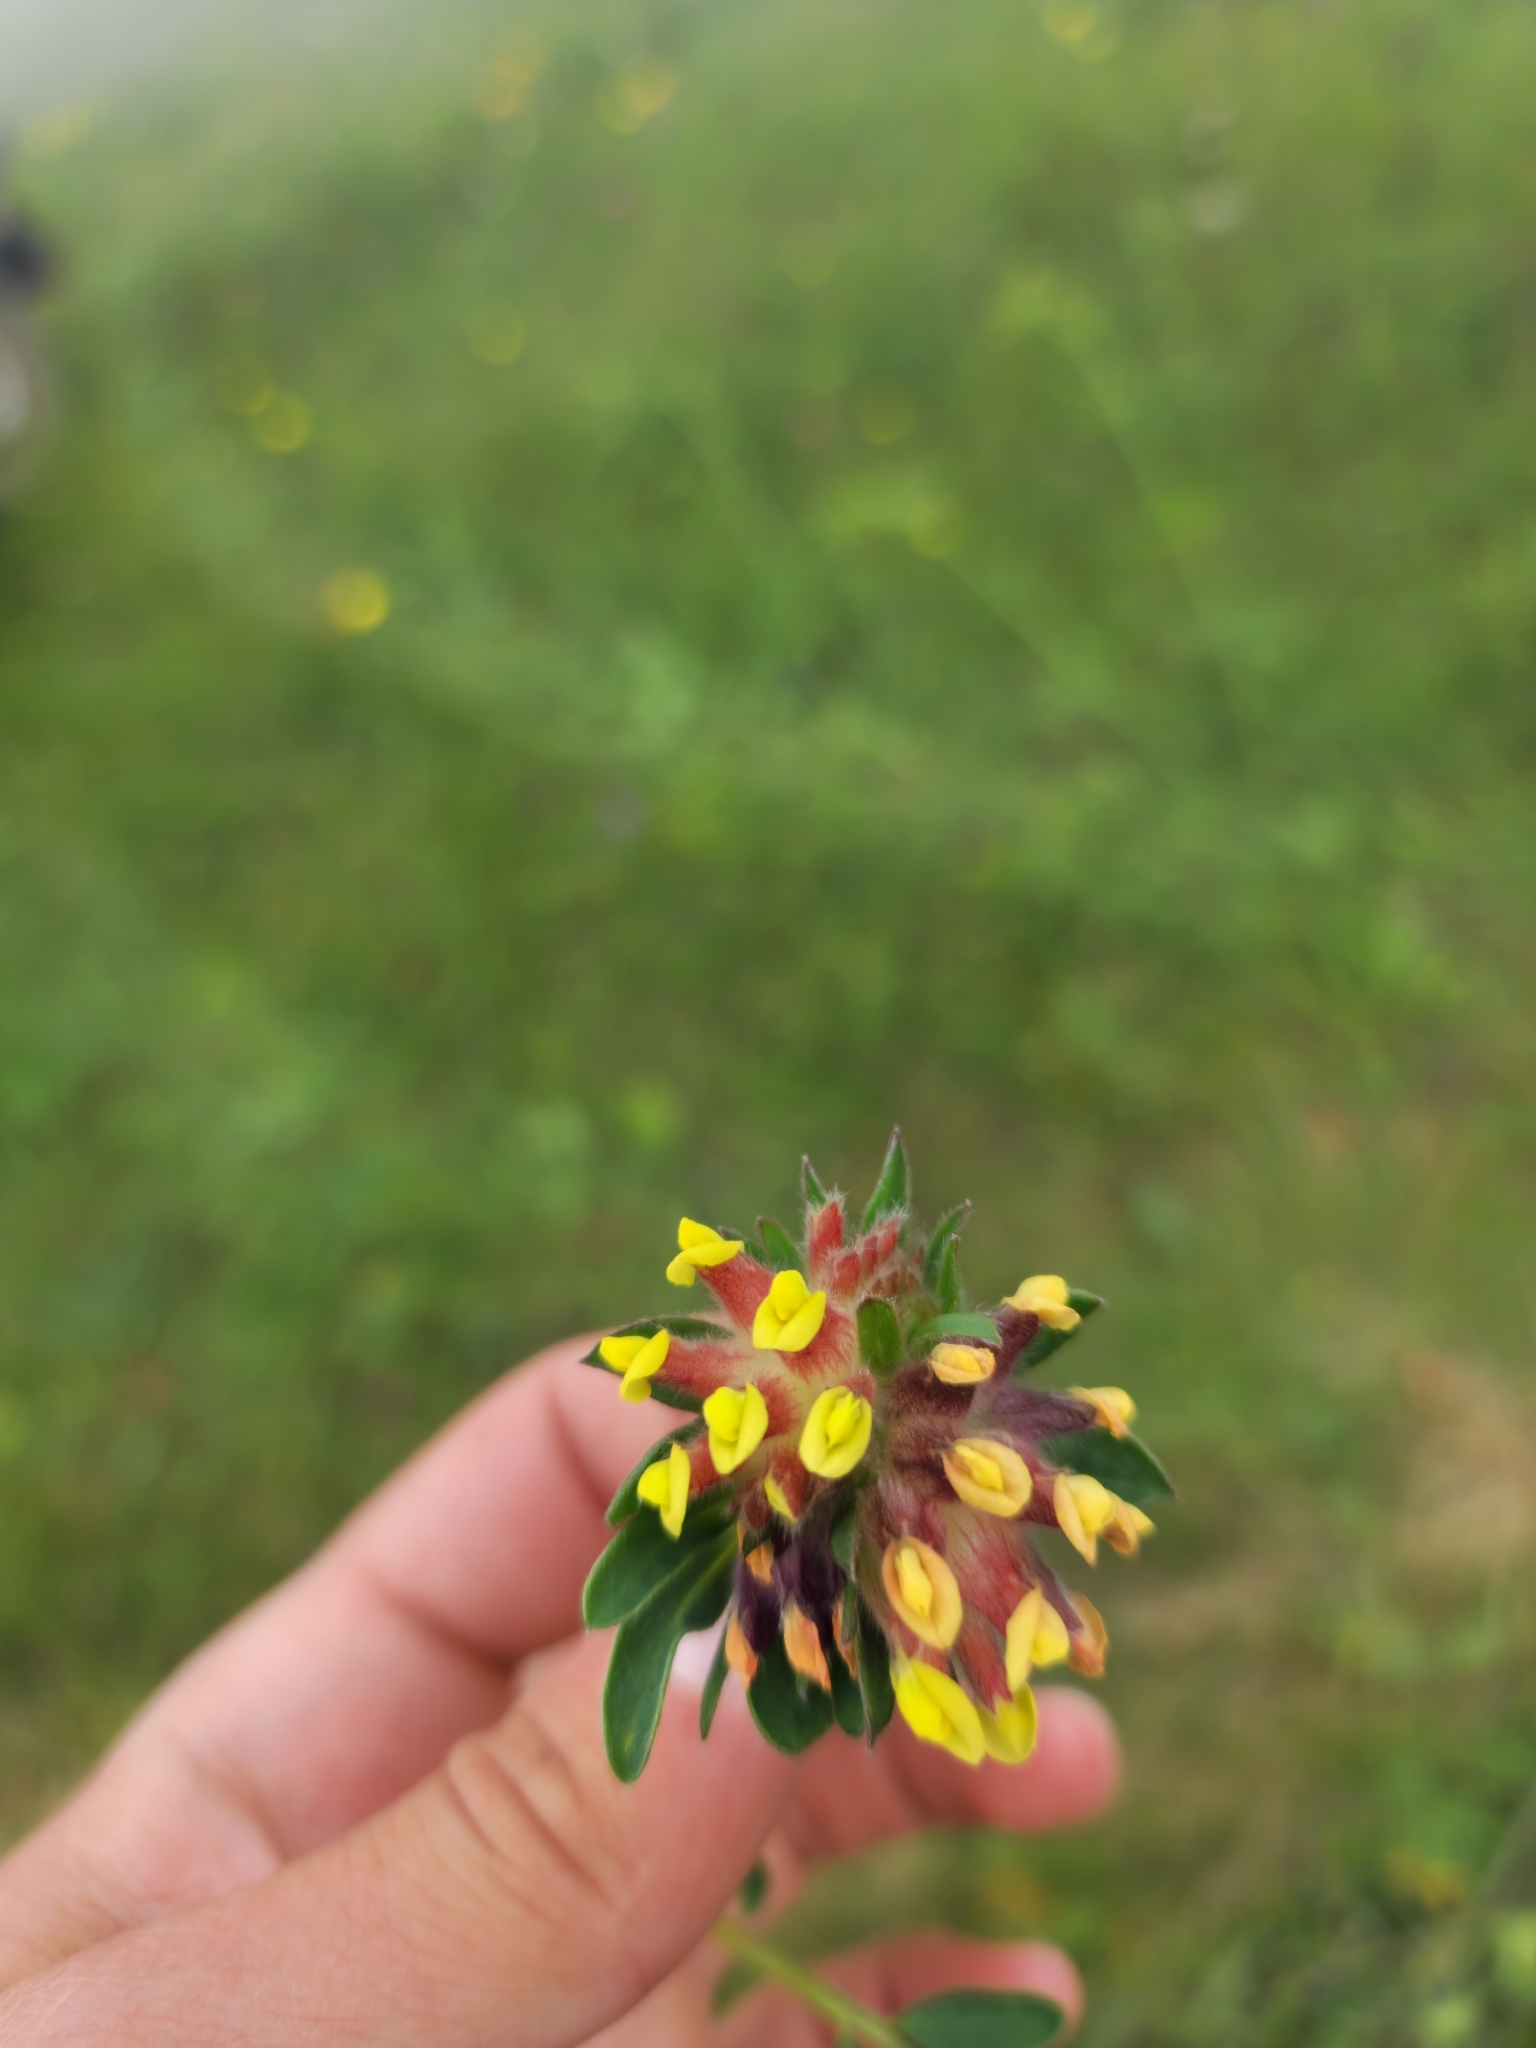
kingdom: Plantae
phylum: Tracheophyta
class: Magnoliopsida
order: Fabales
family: Fabaceae
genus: Anthyllis
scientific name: Anthyllis vulneraria
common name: Kidney vetch
